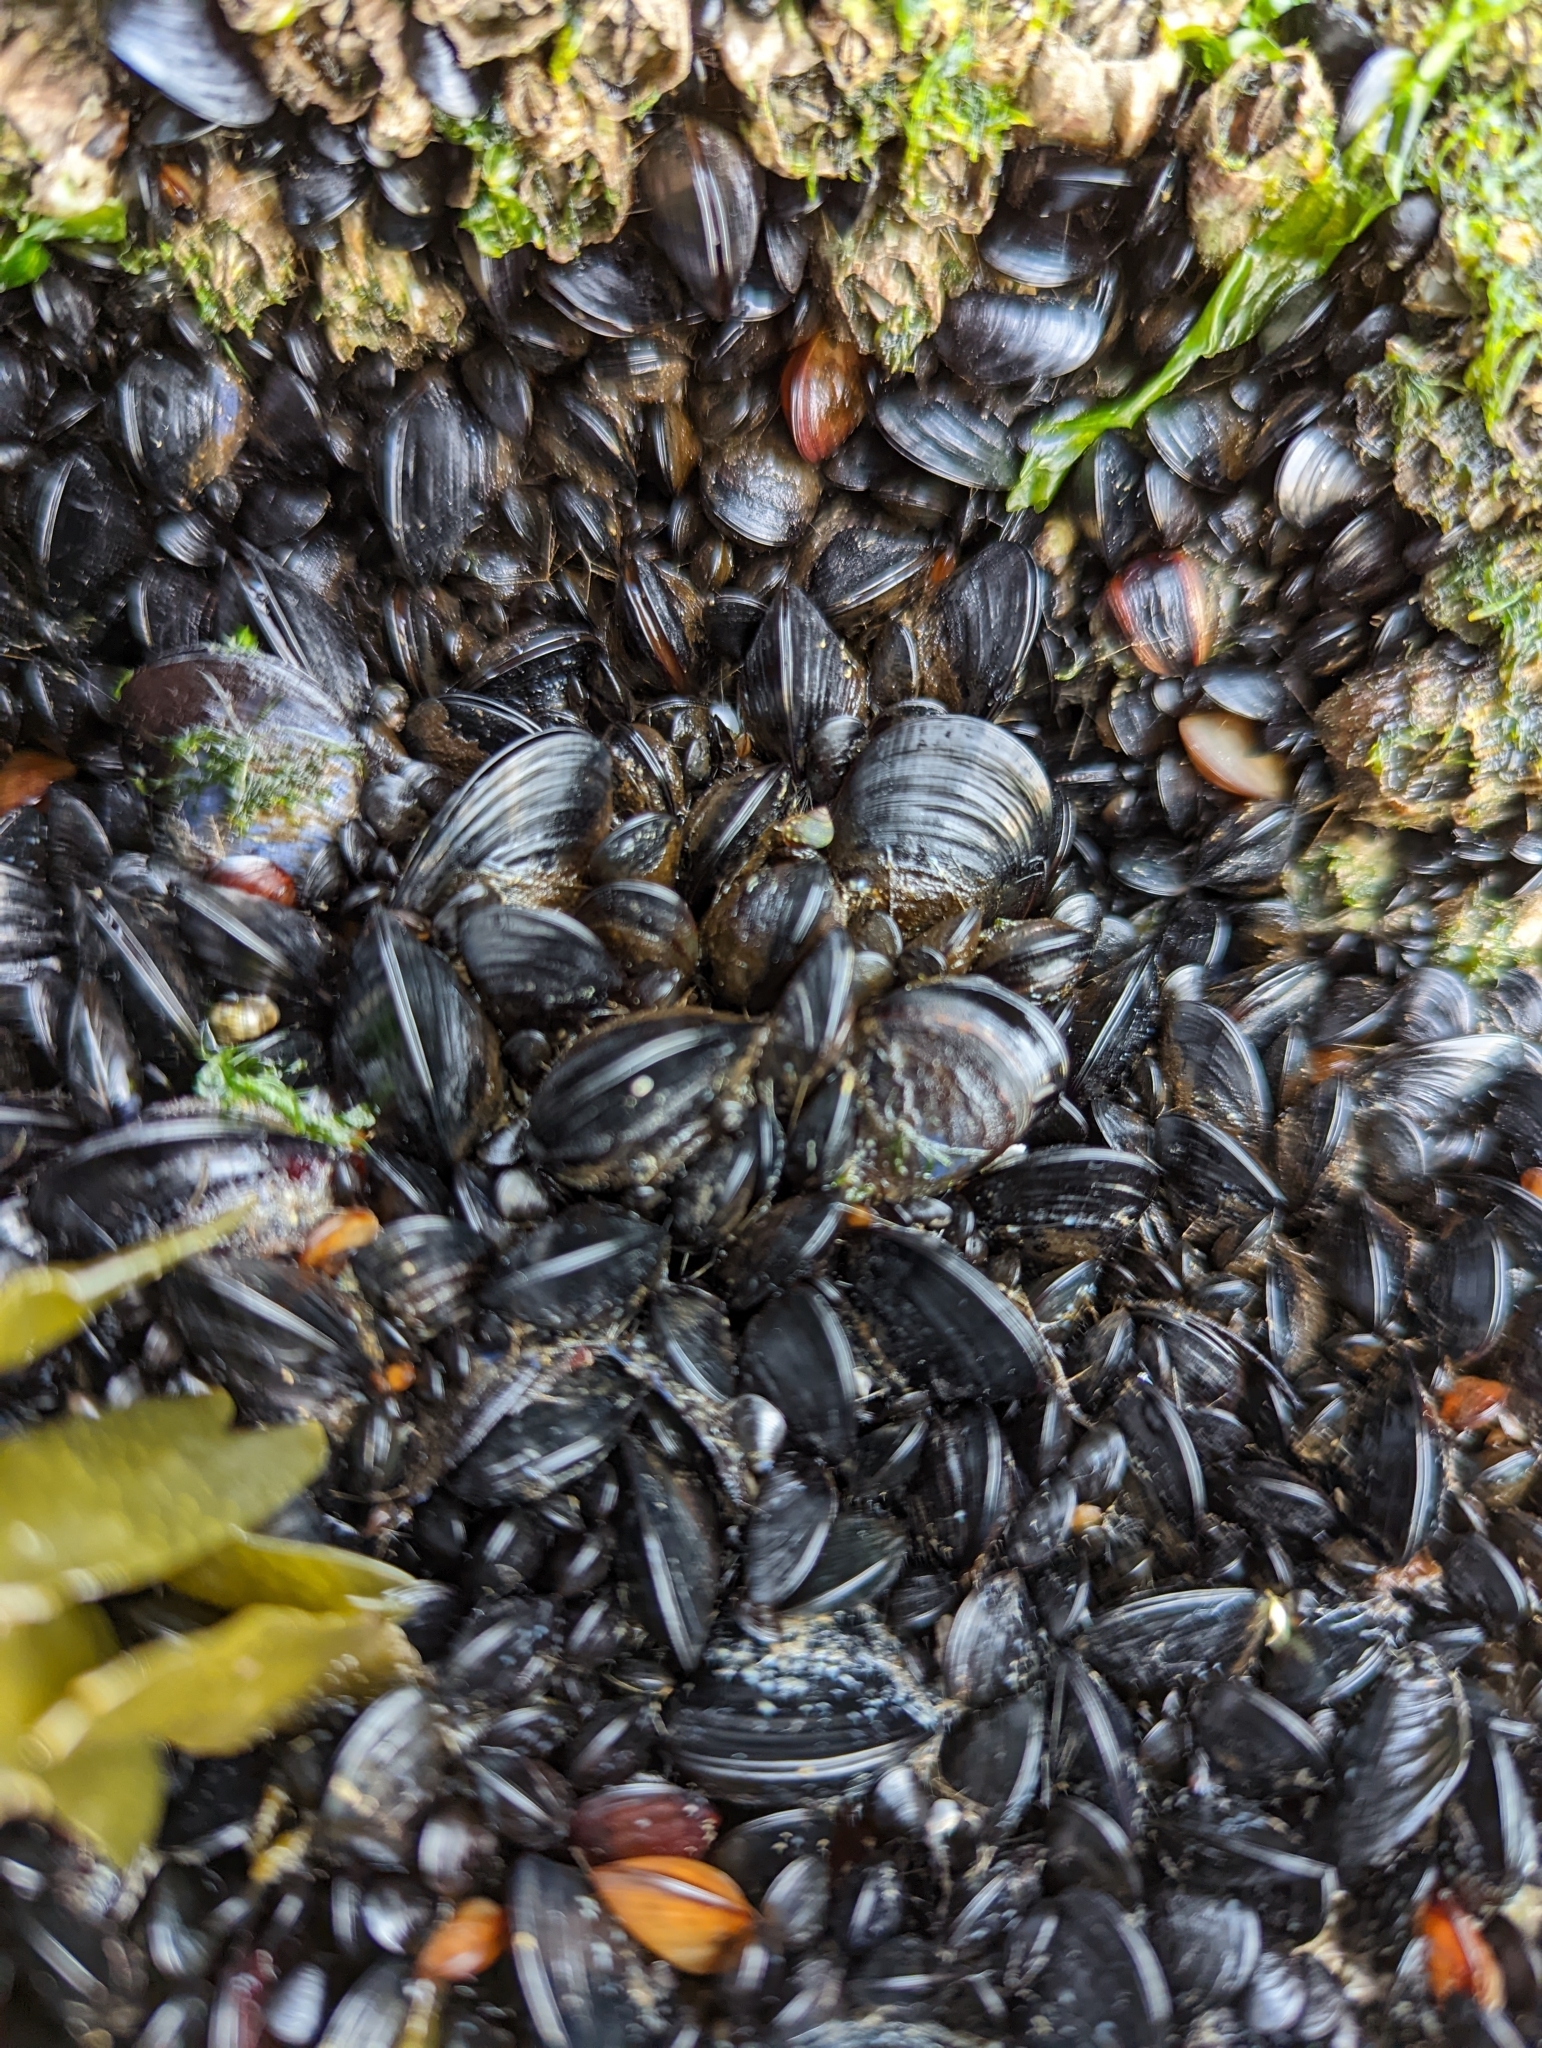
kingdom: Animalia
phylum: Mollusca
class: Bivalvia
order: Mytilida
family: Mytilidae
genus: Mytilus
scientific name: Mytilus
